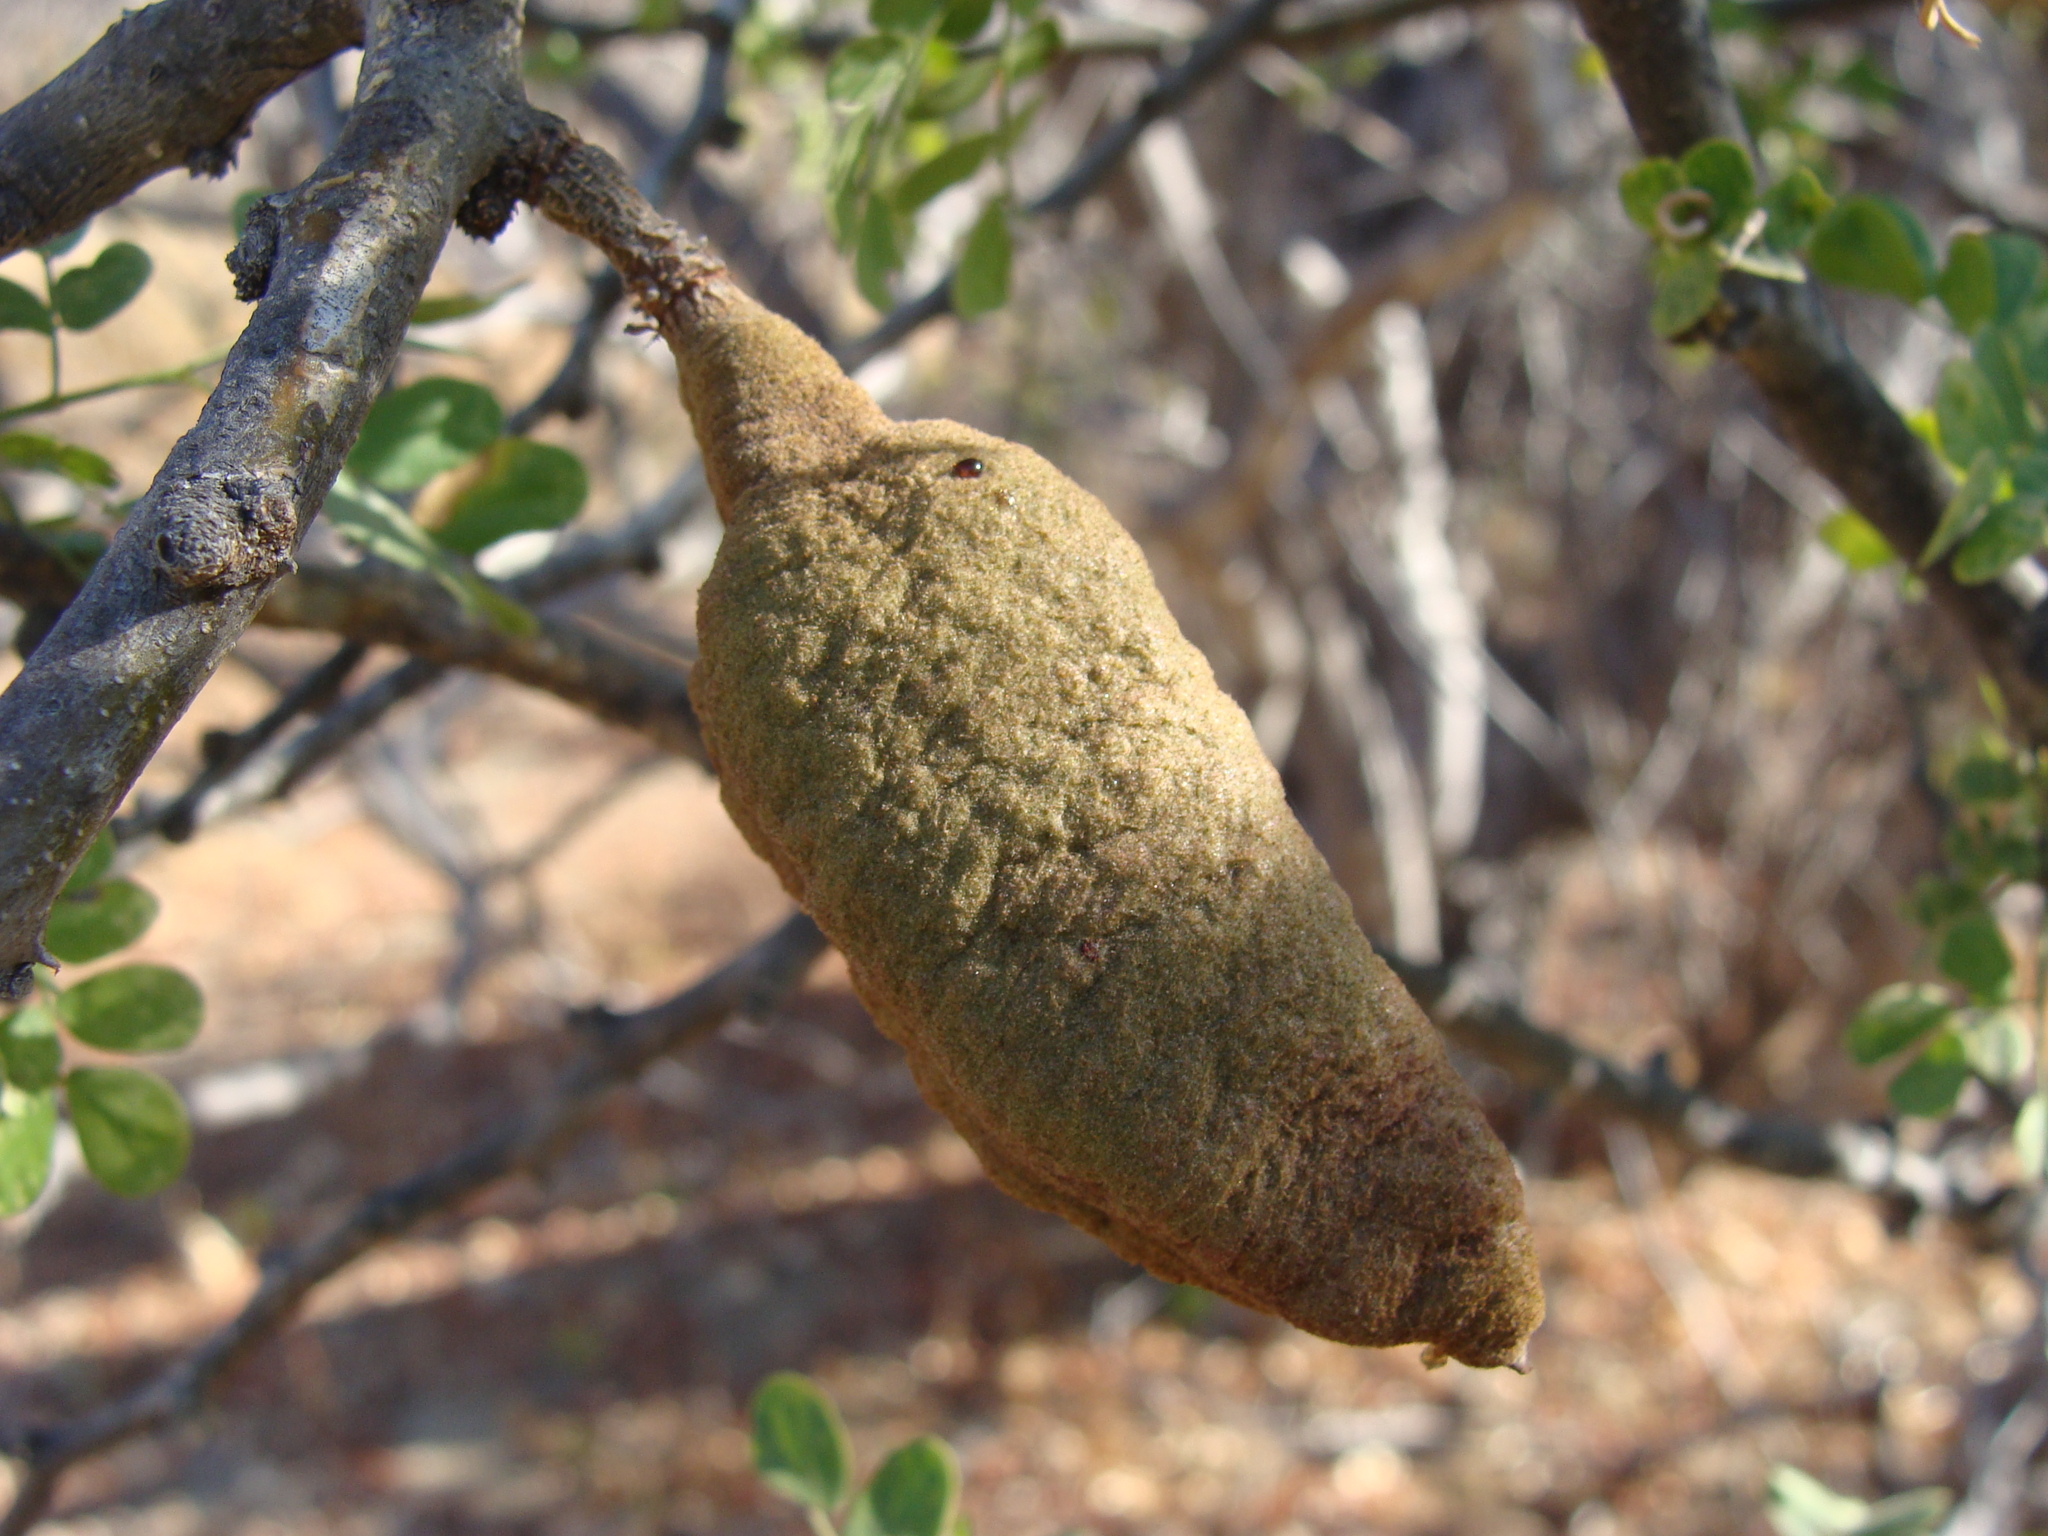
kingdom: Plantae
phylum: Tracheophyta
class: Magnoliopsida
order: Fabales
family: Fabaceae
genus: Ebenopsis
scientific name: Ebenopsis confinis
